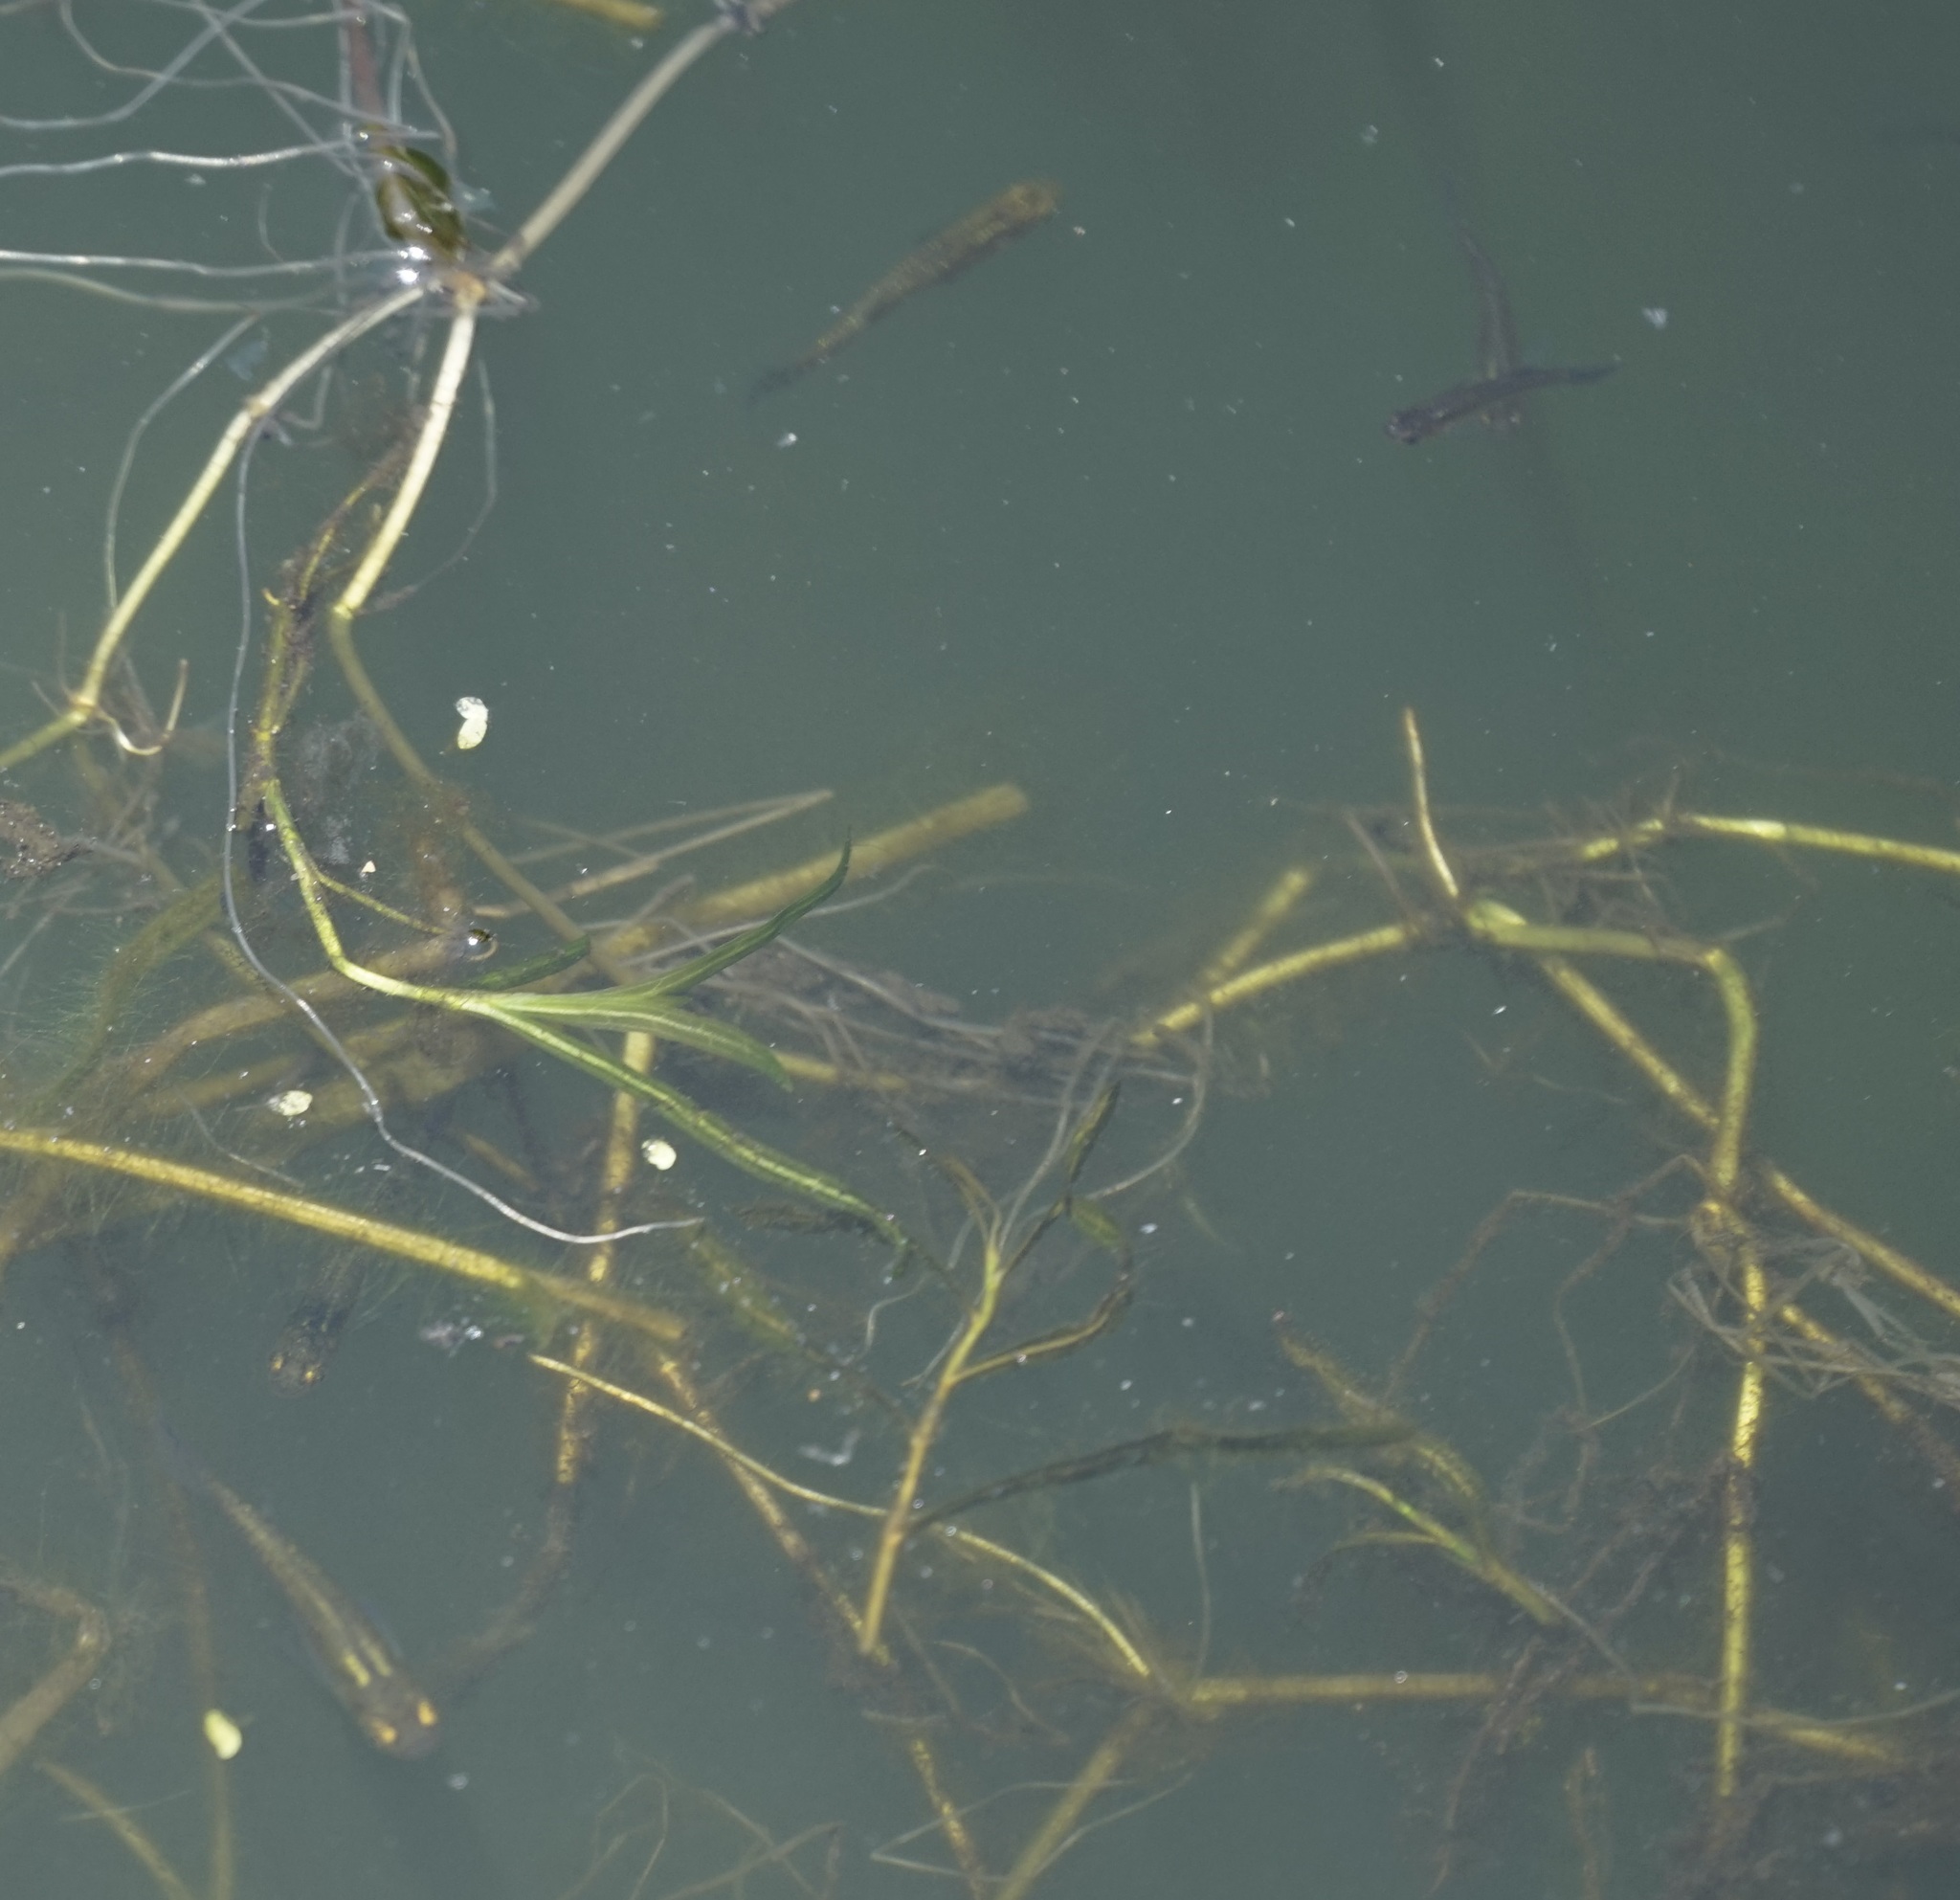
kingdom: Animalia
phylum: Chordata
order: Cyprinodontiformes
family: Poeciliidae
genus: Gambusia
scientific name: Gambusia holbrooki
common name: Eastern mosquitofish
